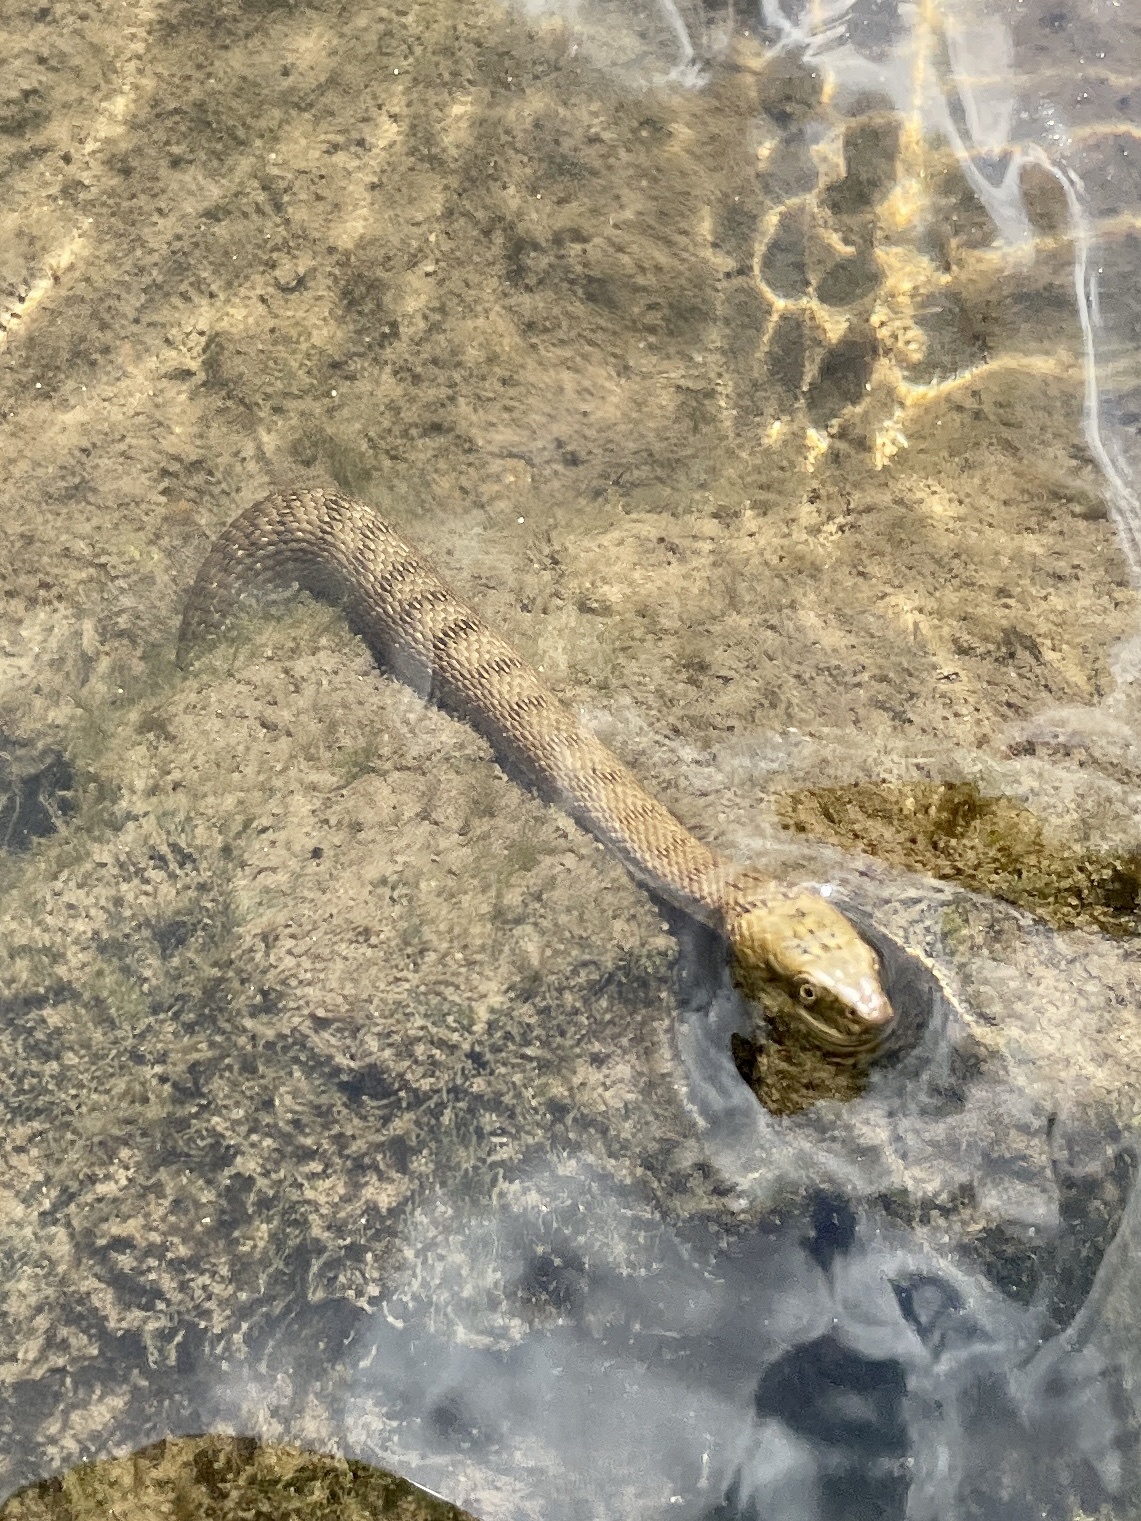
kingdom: Animalia
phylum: Chordata
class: Squamata
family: Colubridae
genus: Natrix
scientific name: Natrix tessellata
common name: Dice snake
